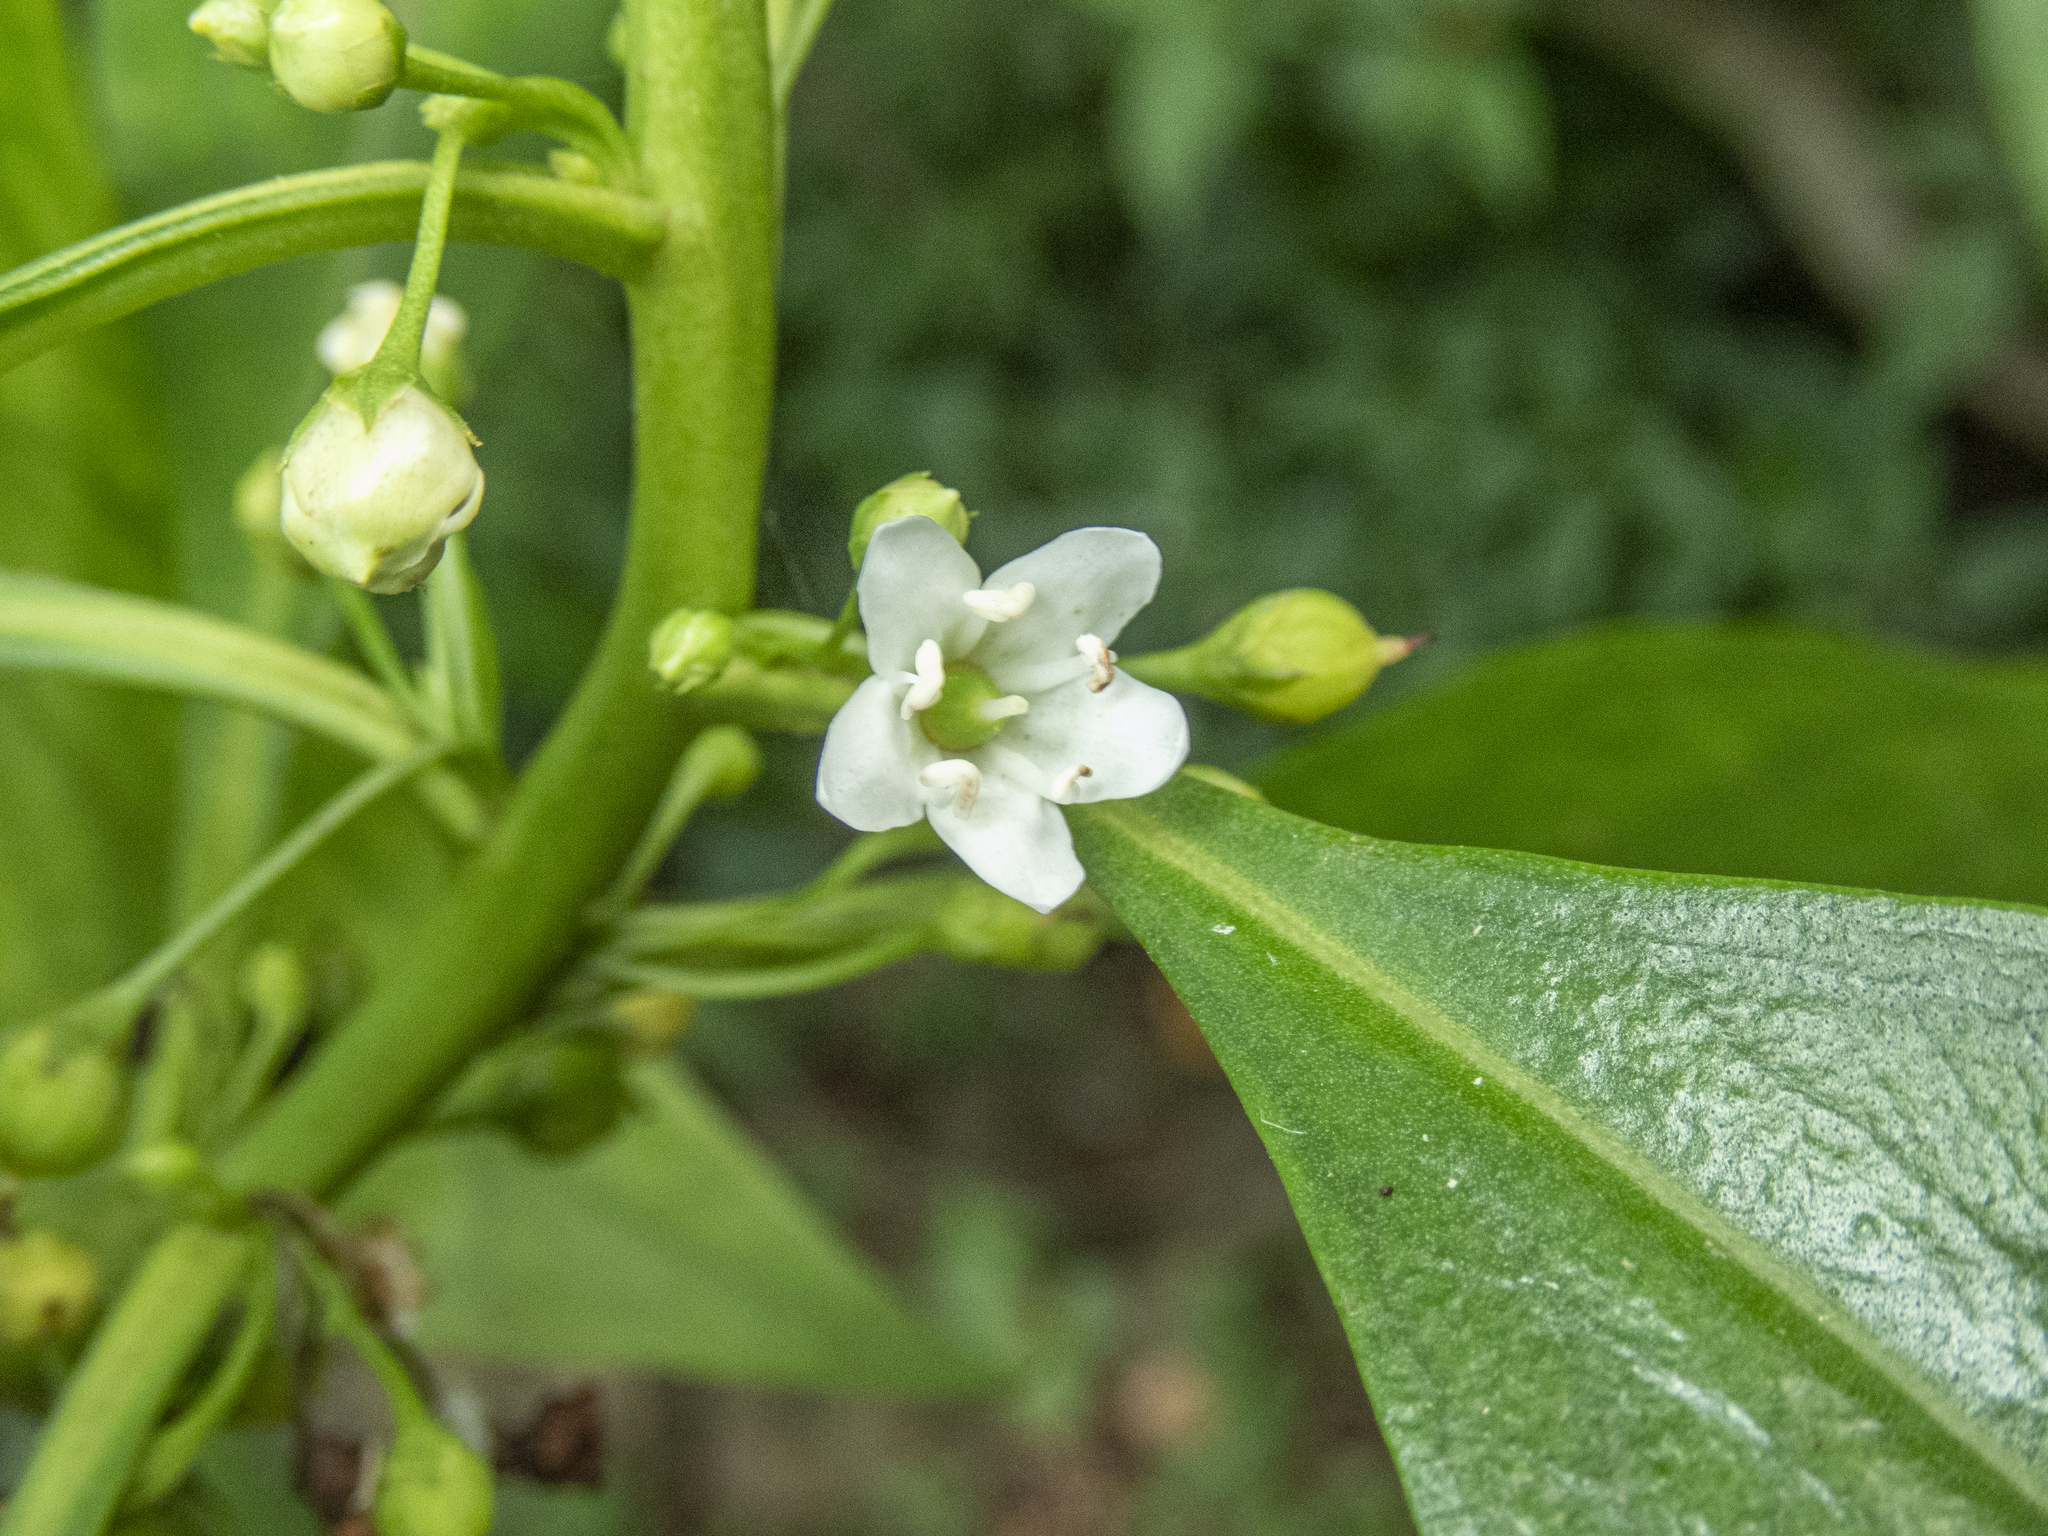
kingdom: Plantae
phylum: Tracheophyta
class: Magnoliopsida
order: Lamiales
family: Scrophulariaceae
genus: Myoporum
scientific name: Myoporum sandwicense
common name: Bastard-sandalwood
